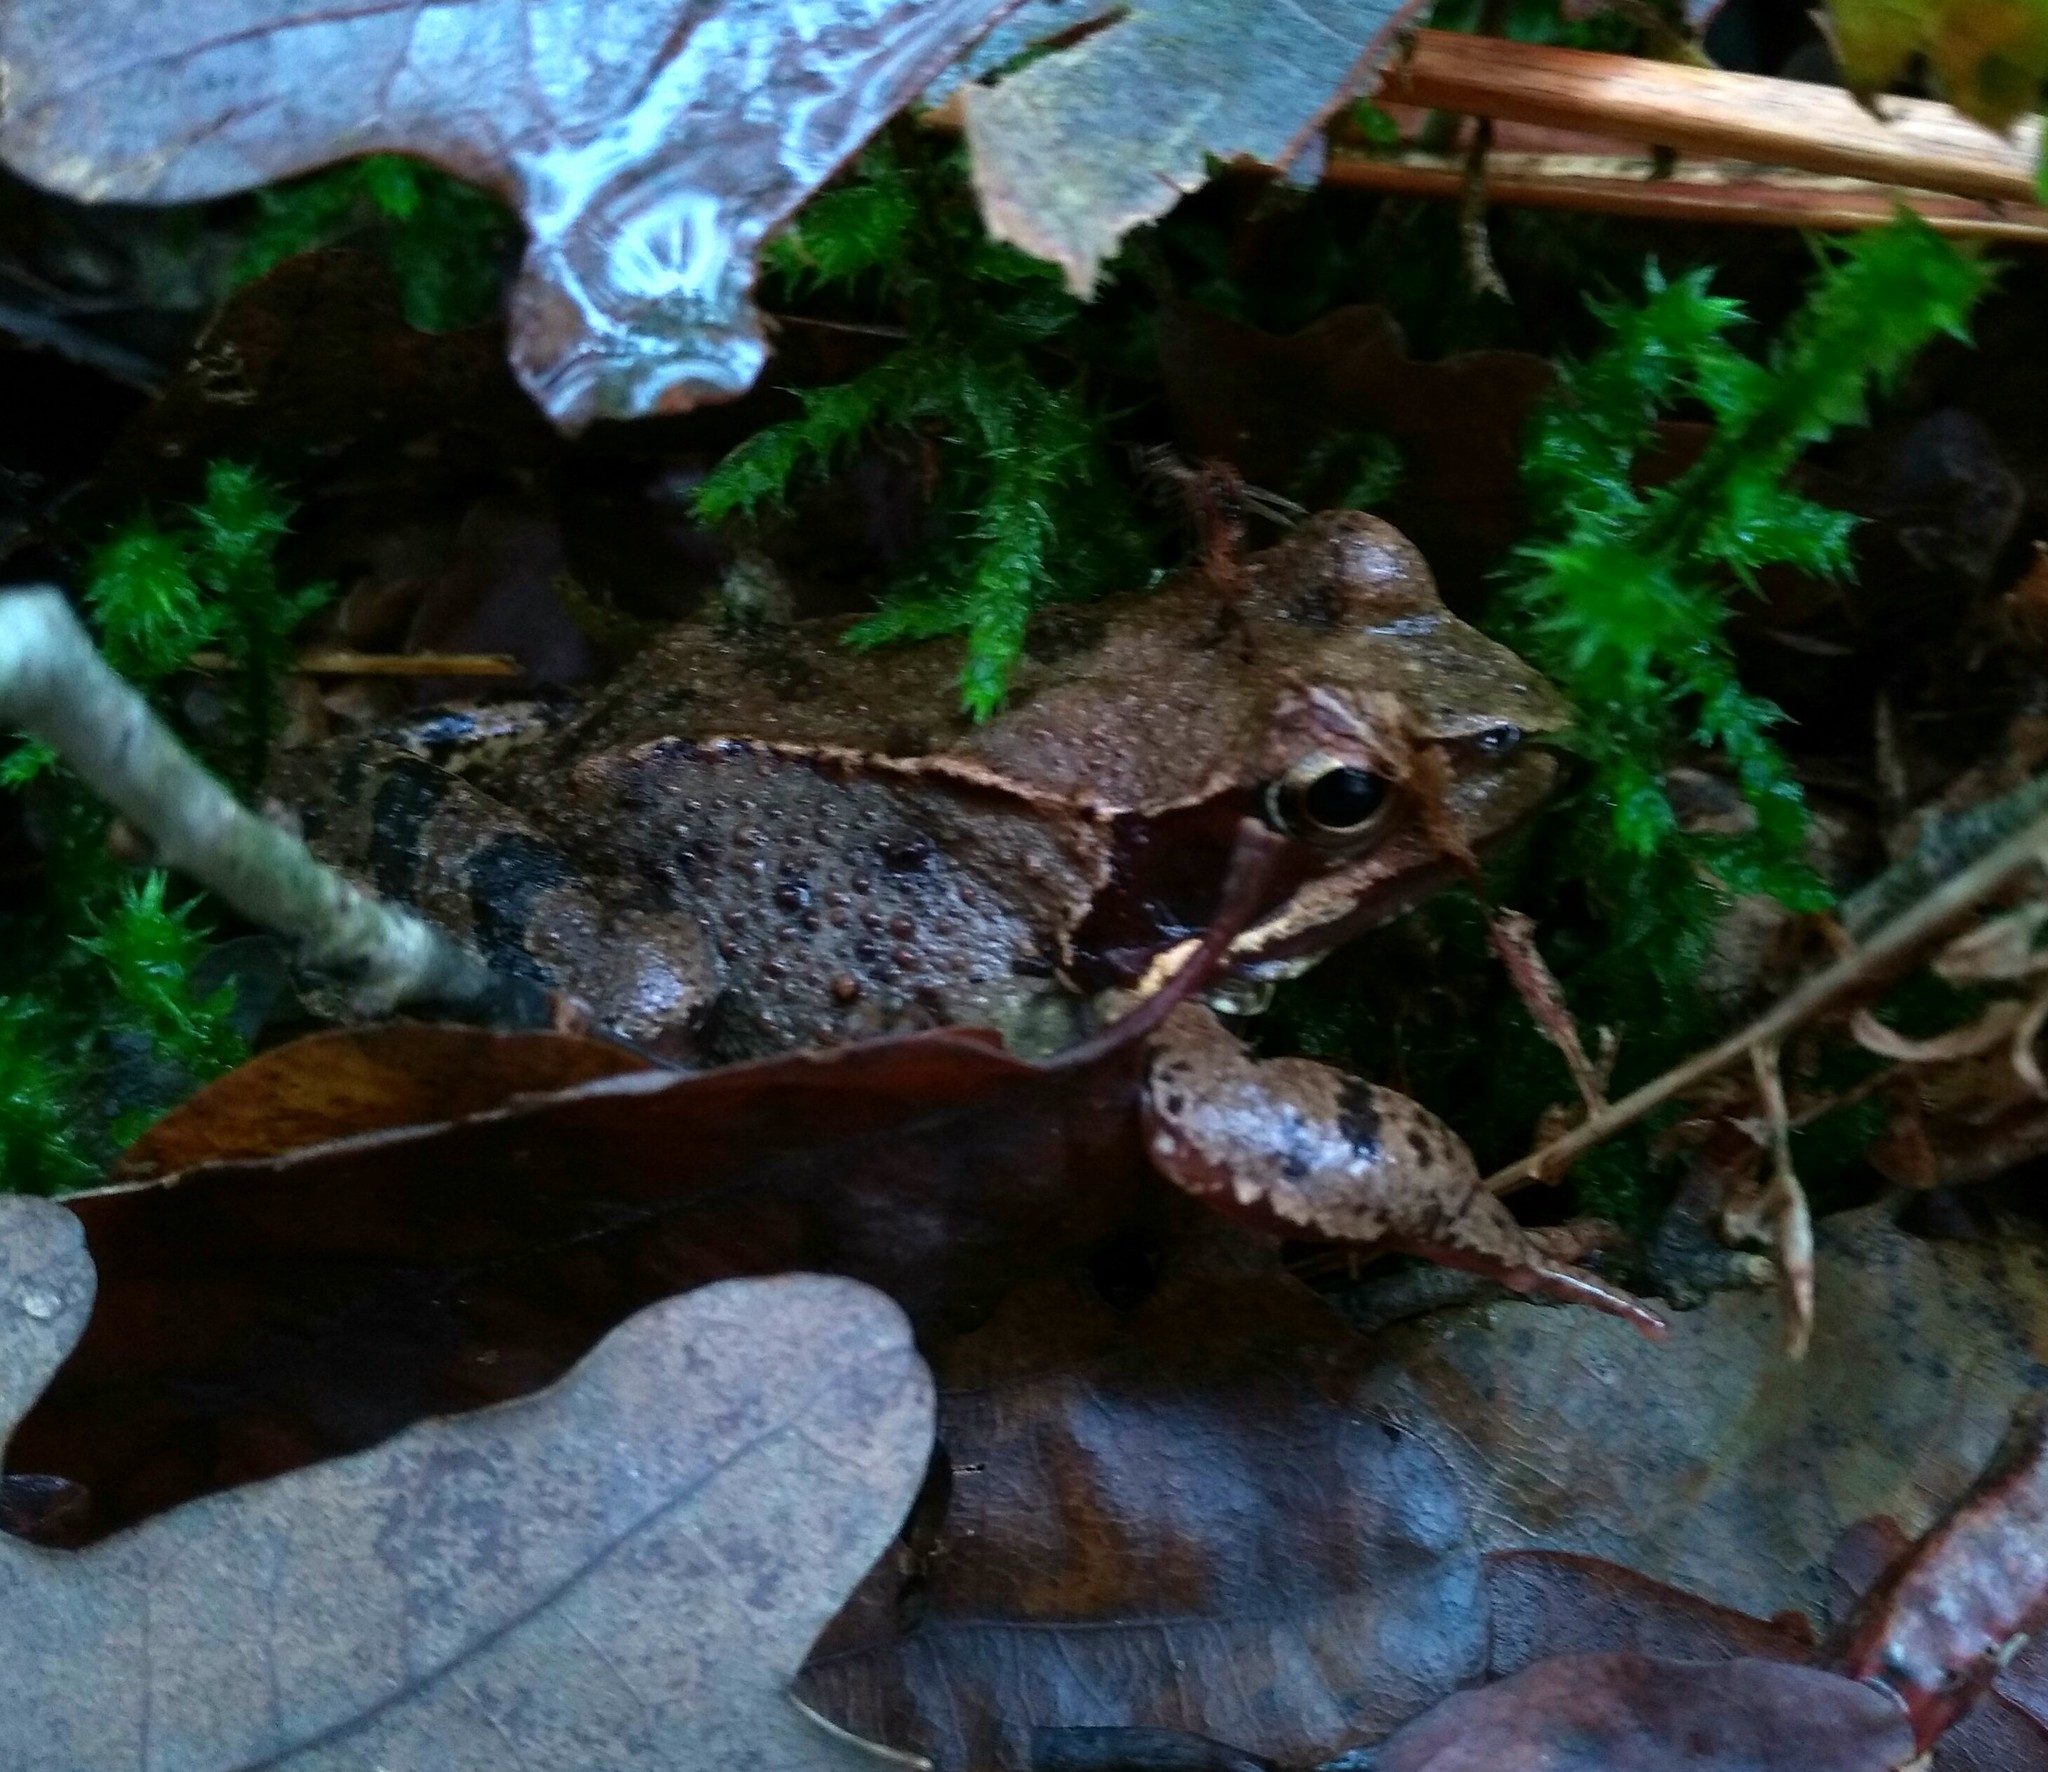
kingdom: Animalia
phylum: Chordata
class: Amphibia
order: Anura
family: Ranidae
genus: Rana
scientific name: Rana temporaria
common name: Common frog
